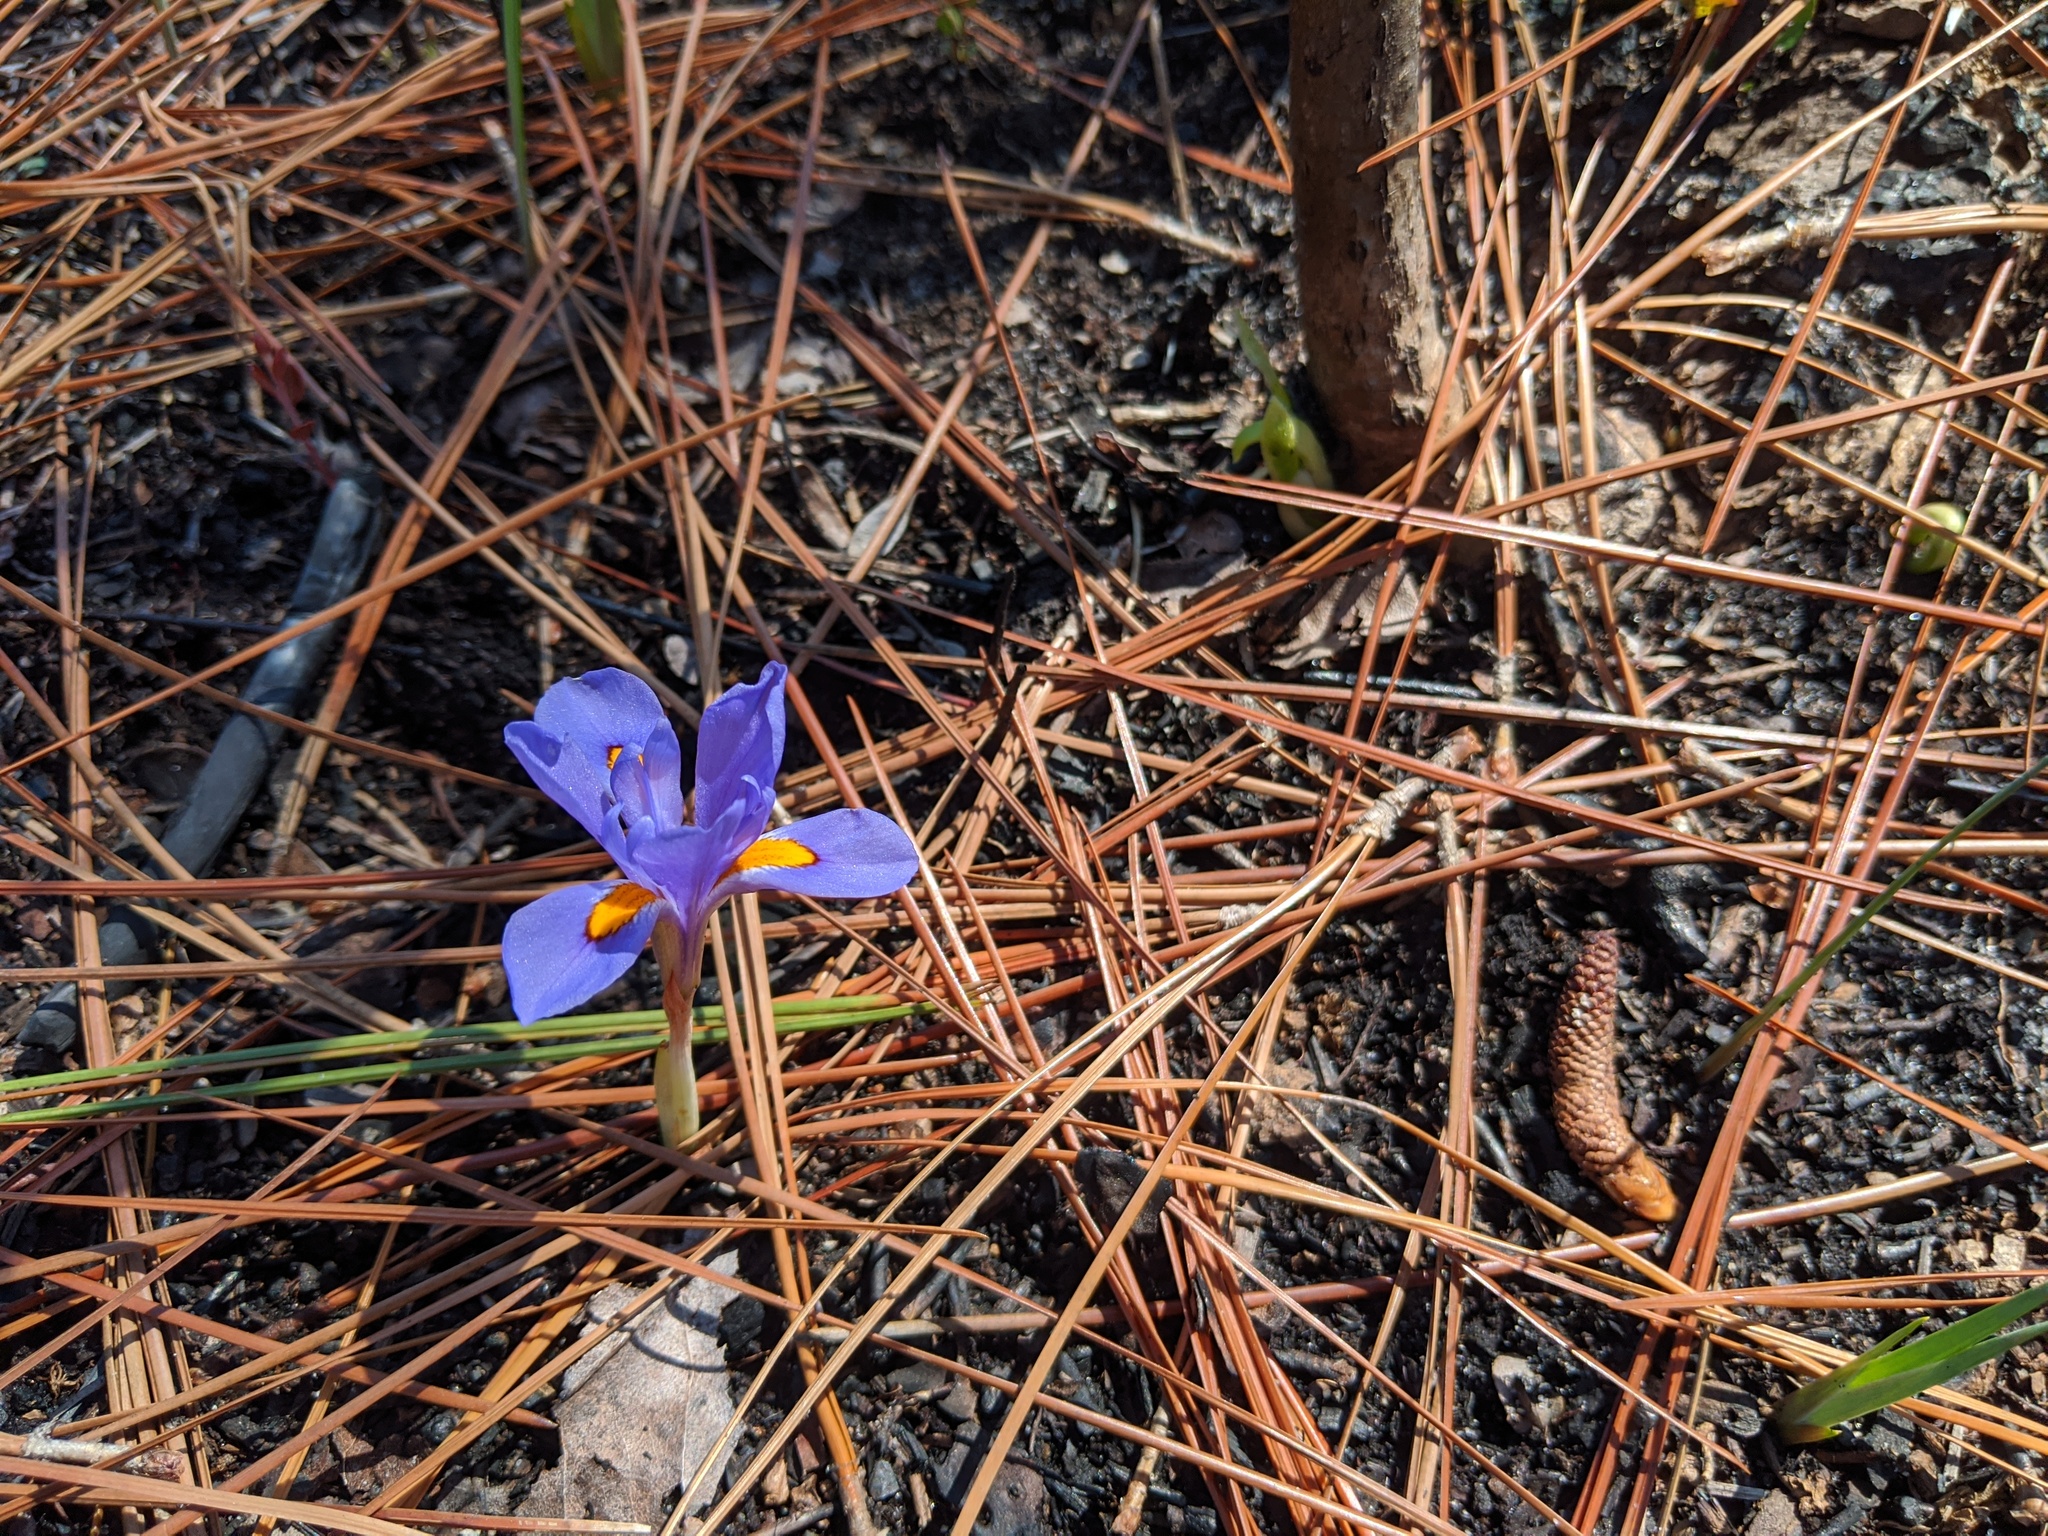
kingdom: Plantae
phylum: Tracheophyta
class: Liliopsida
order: Asparagales
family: Iridaceae
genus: Iris
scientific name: Iris verna
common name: Dwarf iris
